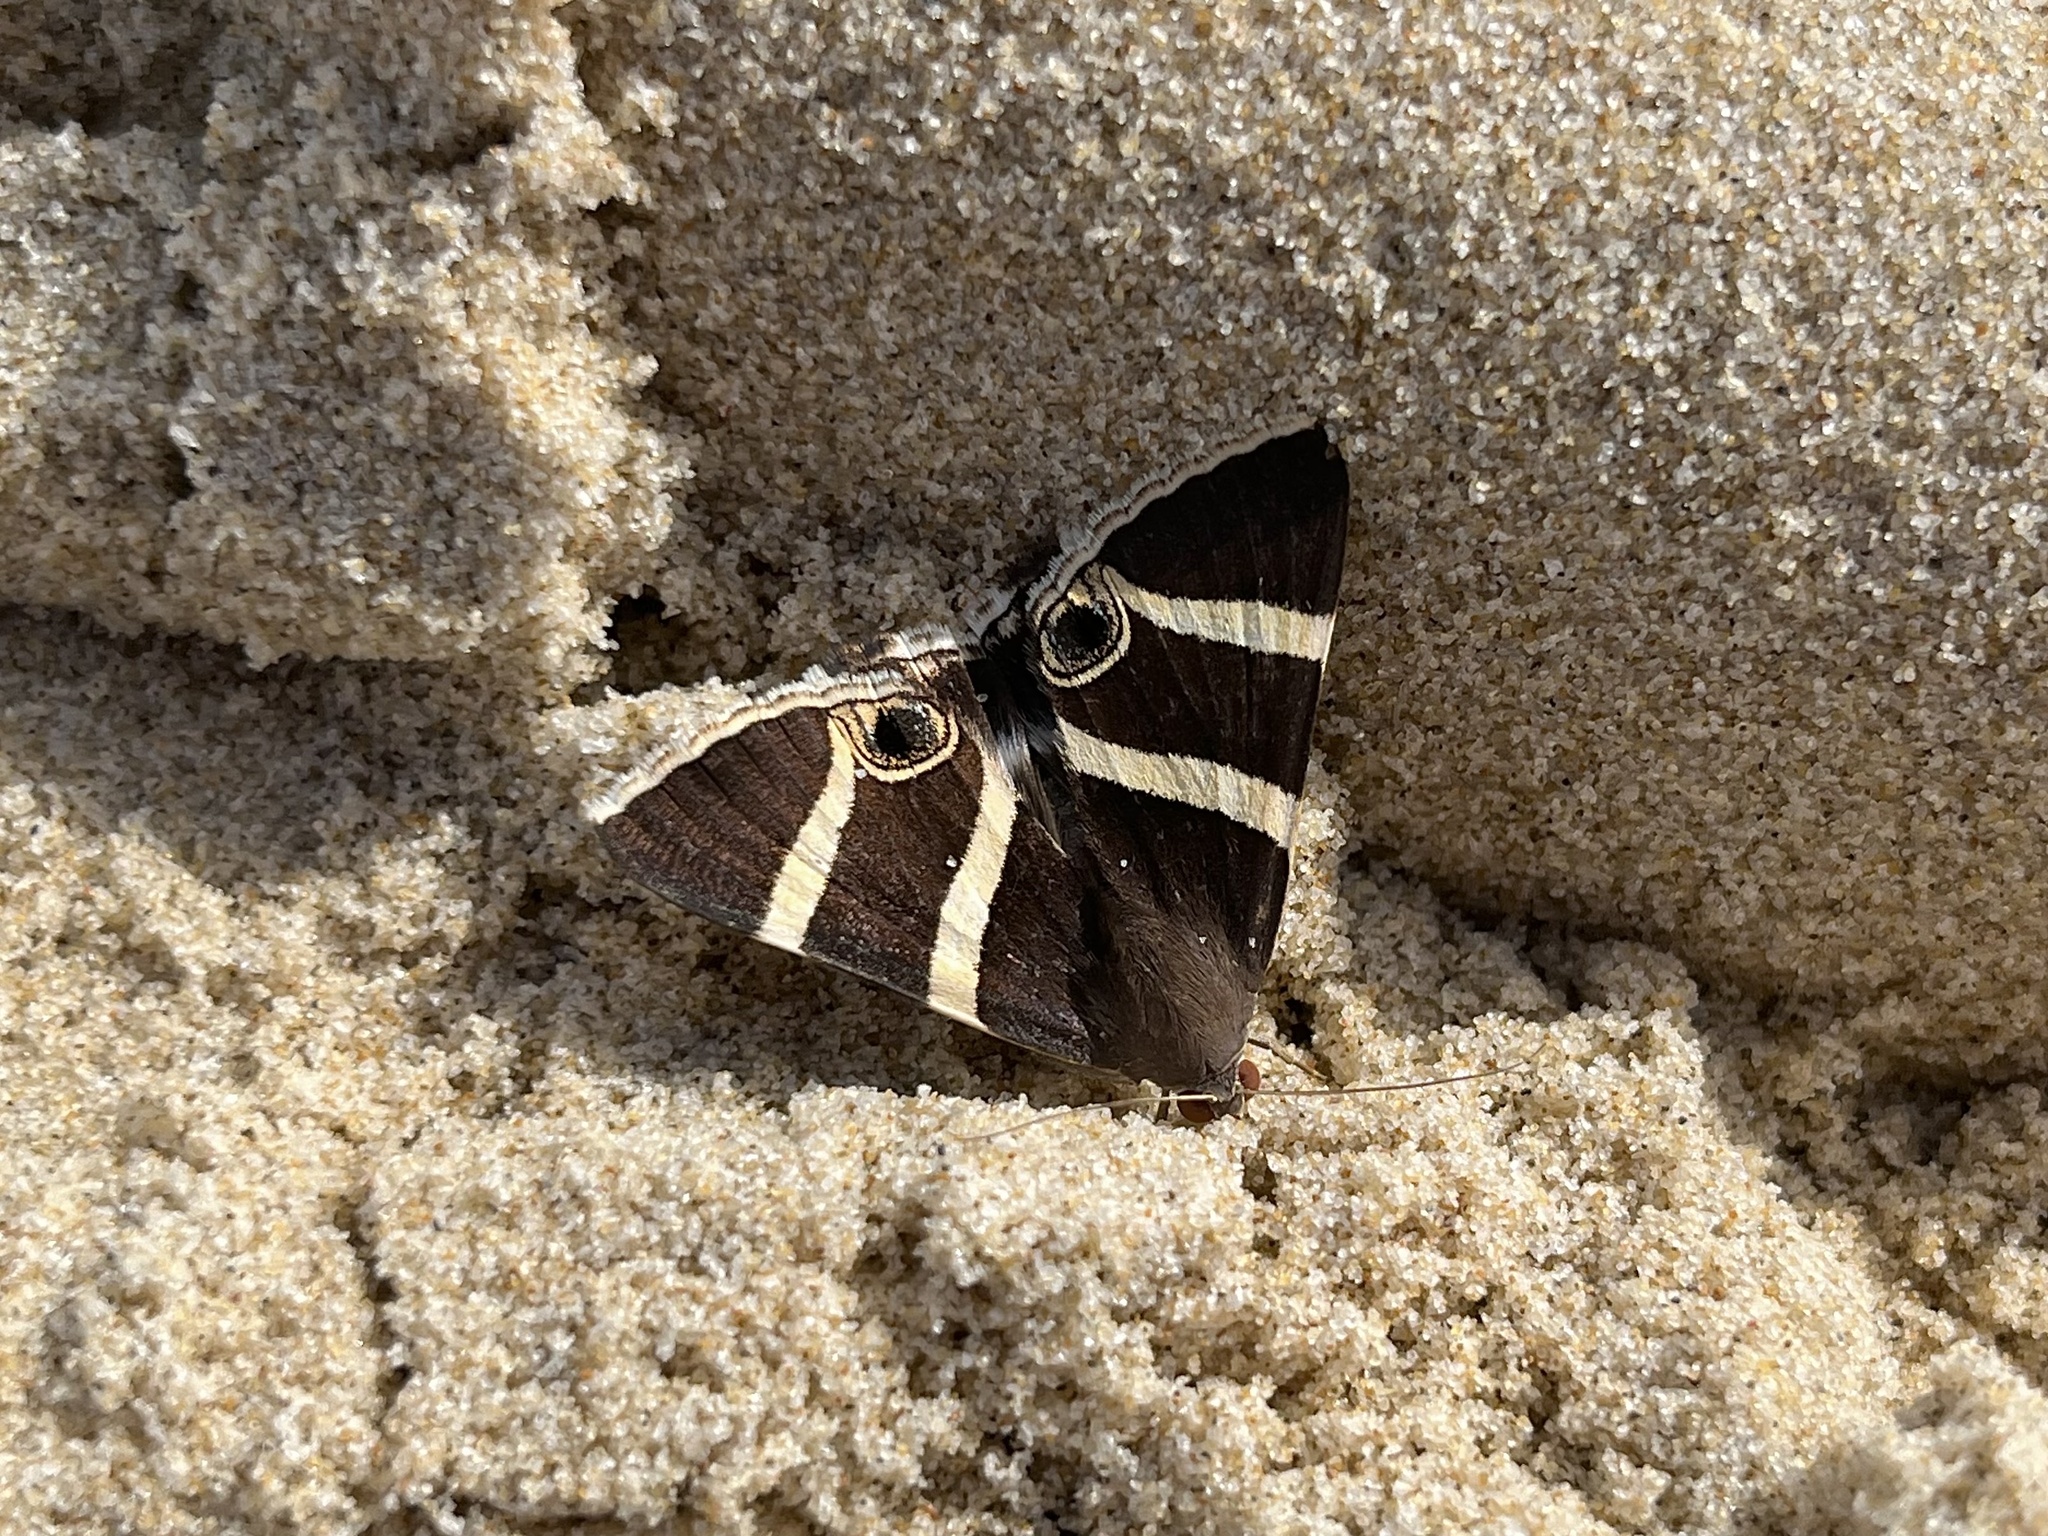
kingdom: Animalia
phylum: Arthropoda
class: Insecta
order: Lepidoptera
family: Erebidae
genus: Grammodes
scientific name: Grammodes ocellata
